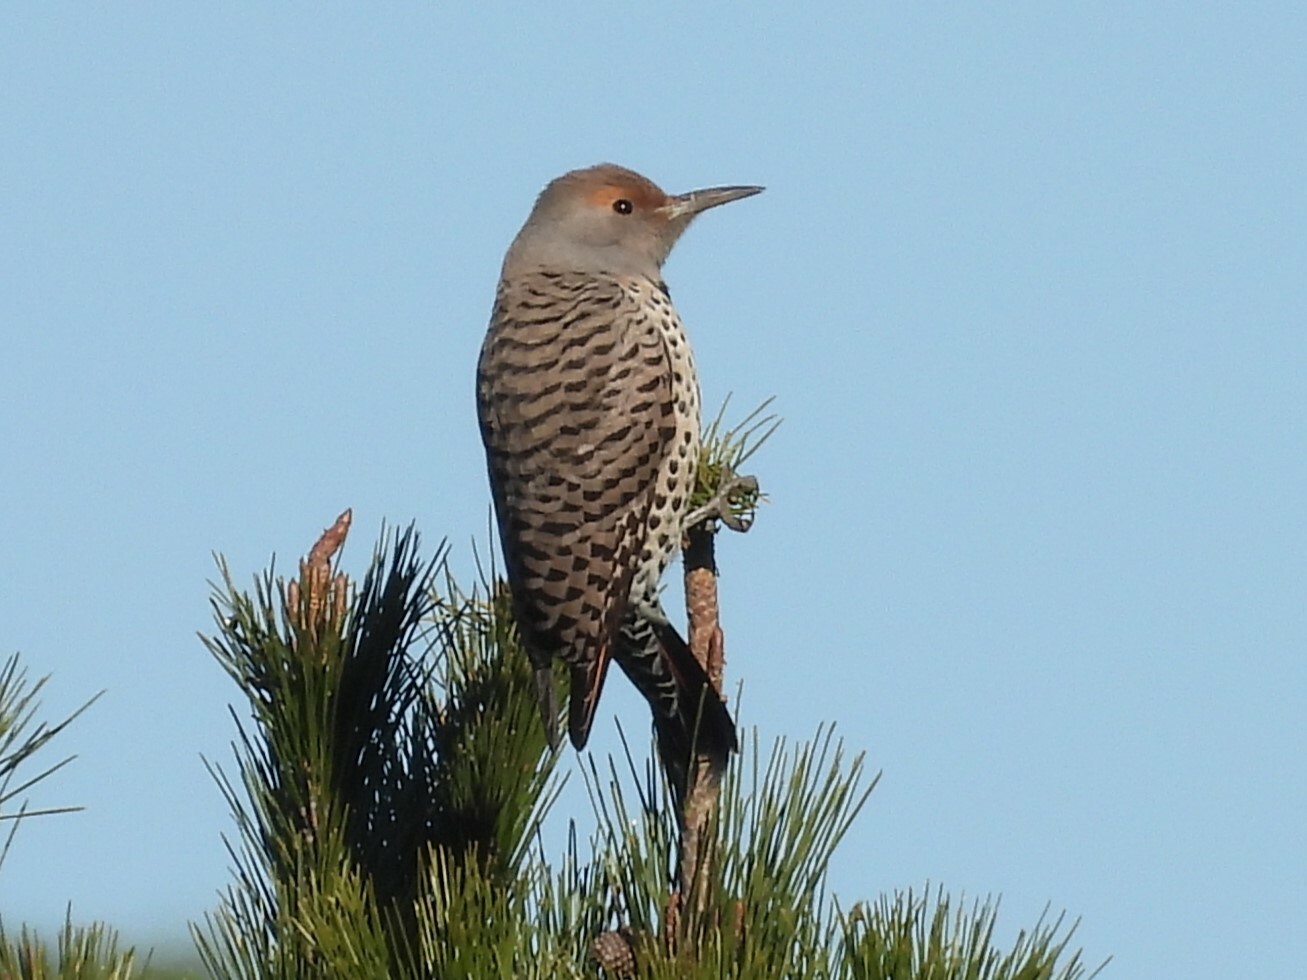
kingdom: Animalia
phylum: Chordata
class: Aves
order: Piciformes
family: Picidae
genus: Colaptes
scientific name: Colaptes auratus
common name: Northern flicker
